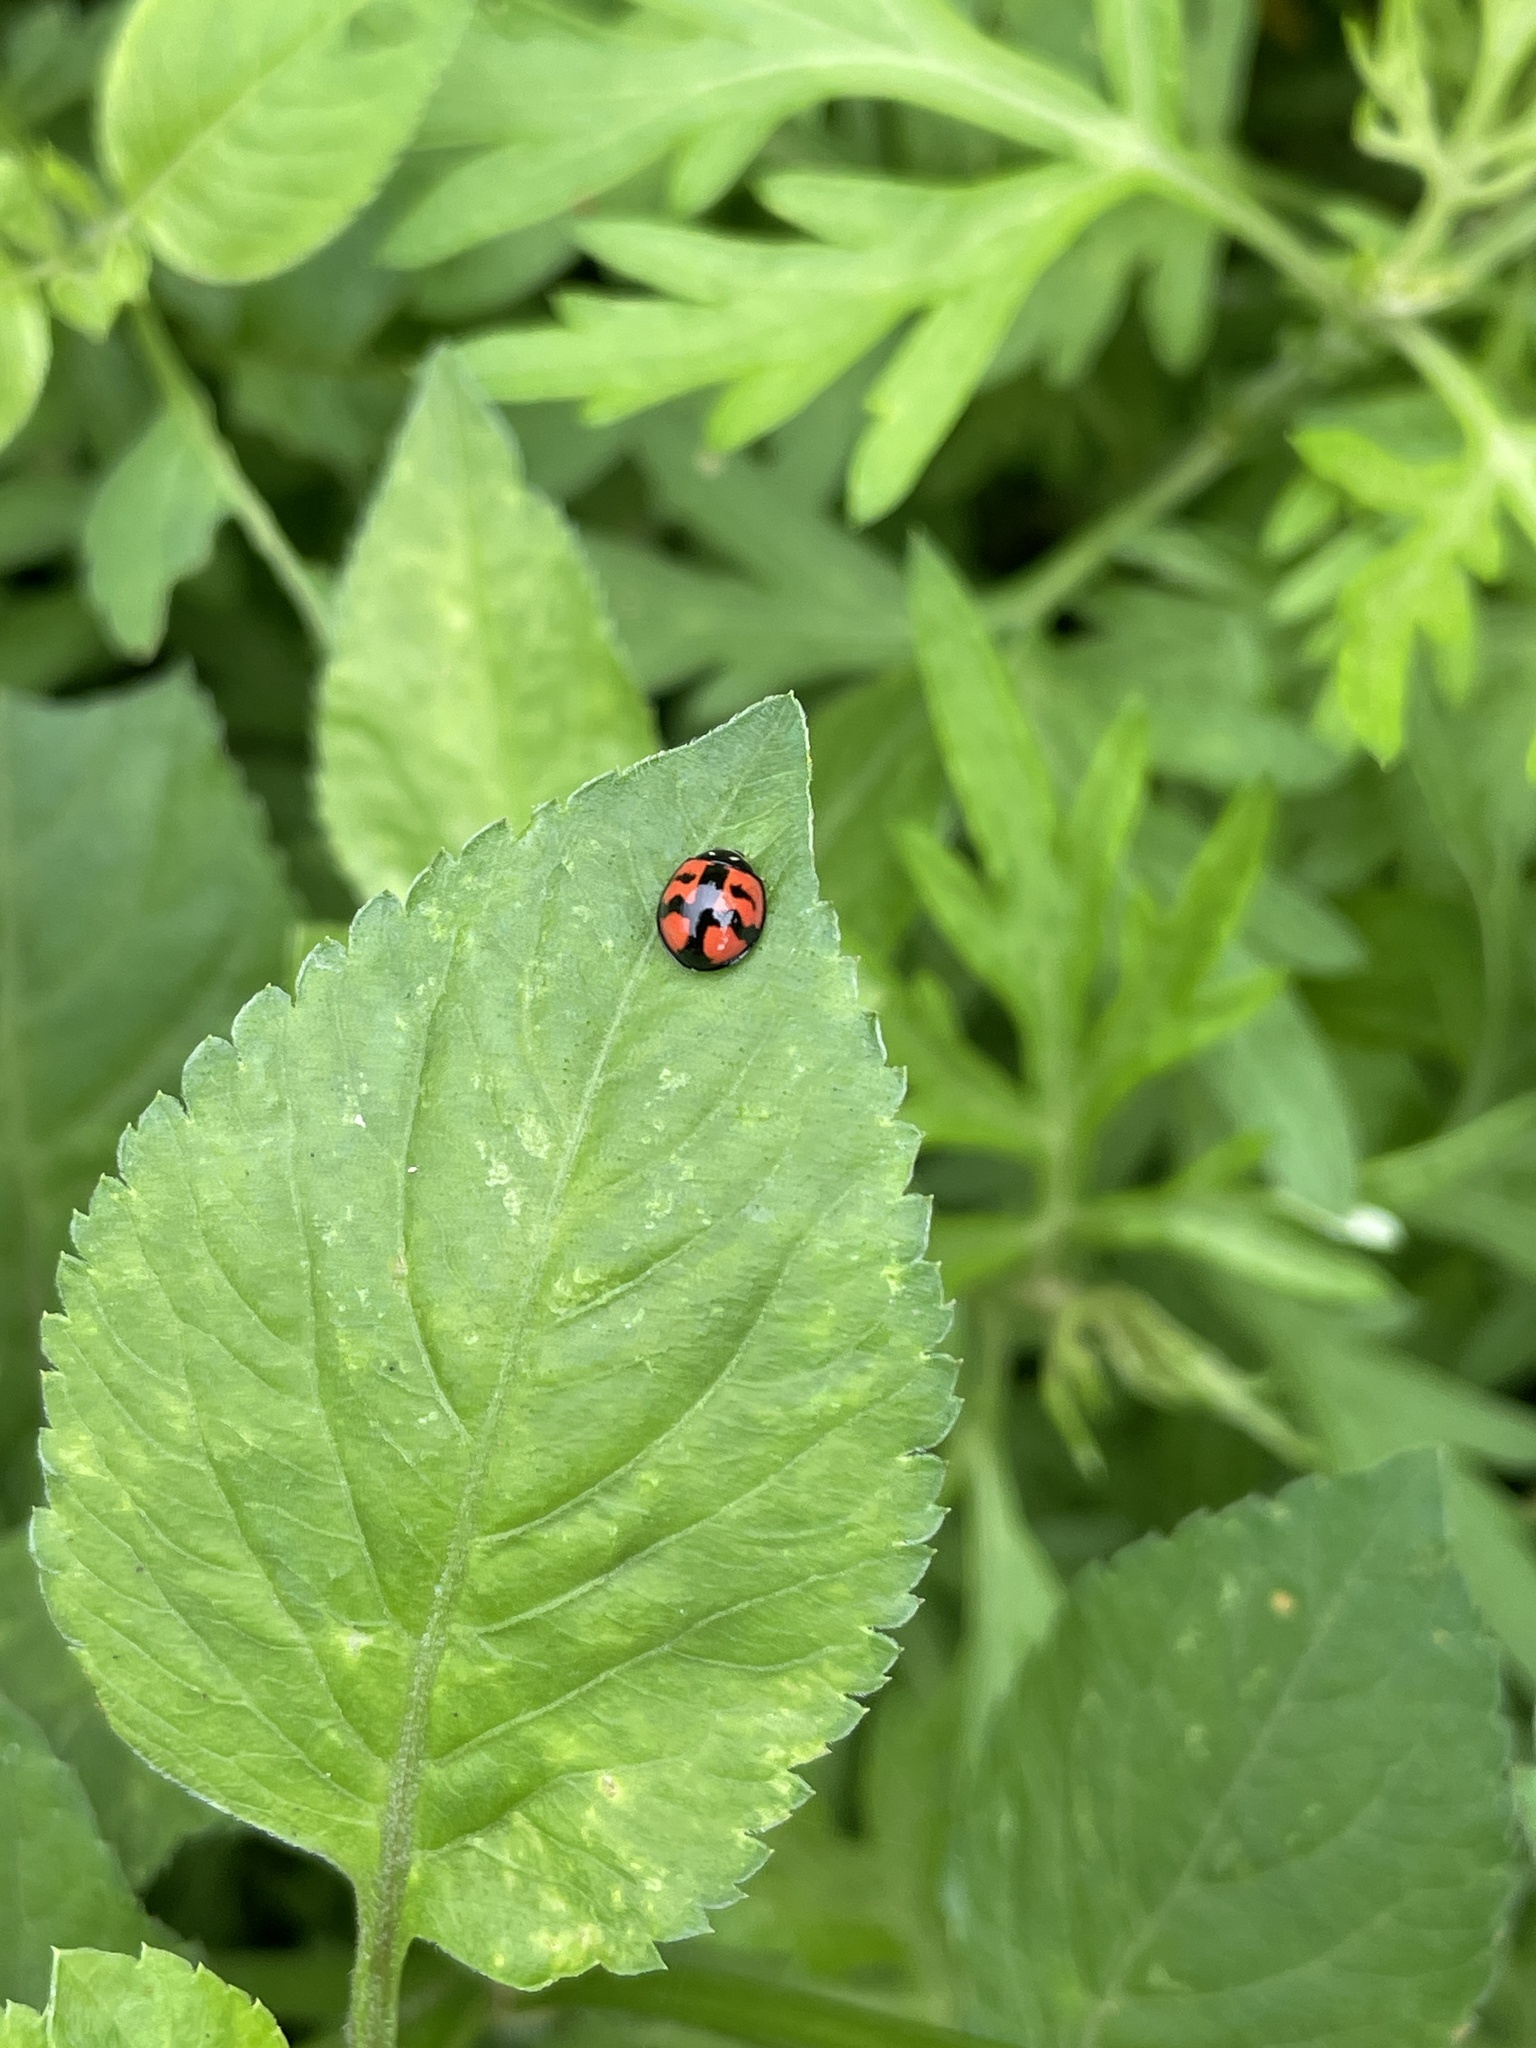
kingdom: Animalia
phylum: Arthropoda
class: Insecta
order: Coleoptera
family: Coccinellidae
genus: Cheilomenes
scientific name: Cheilomenes sexmaculata
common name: Ladybird beetle
